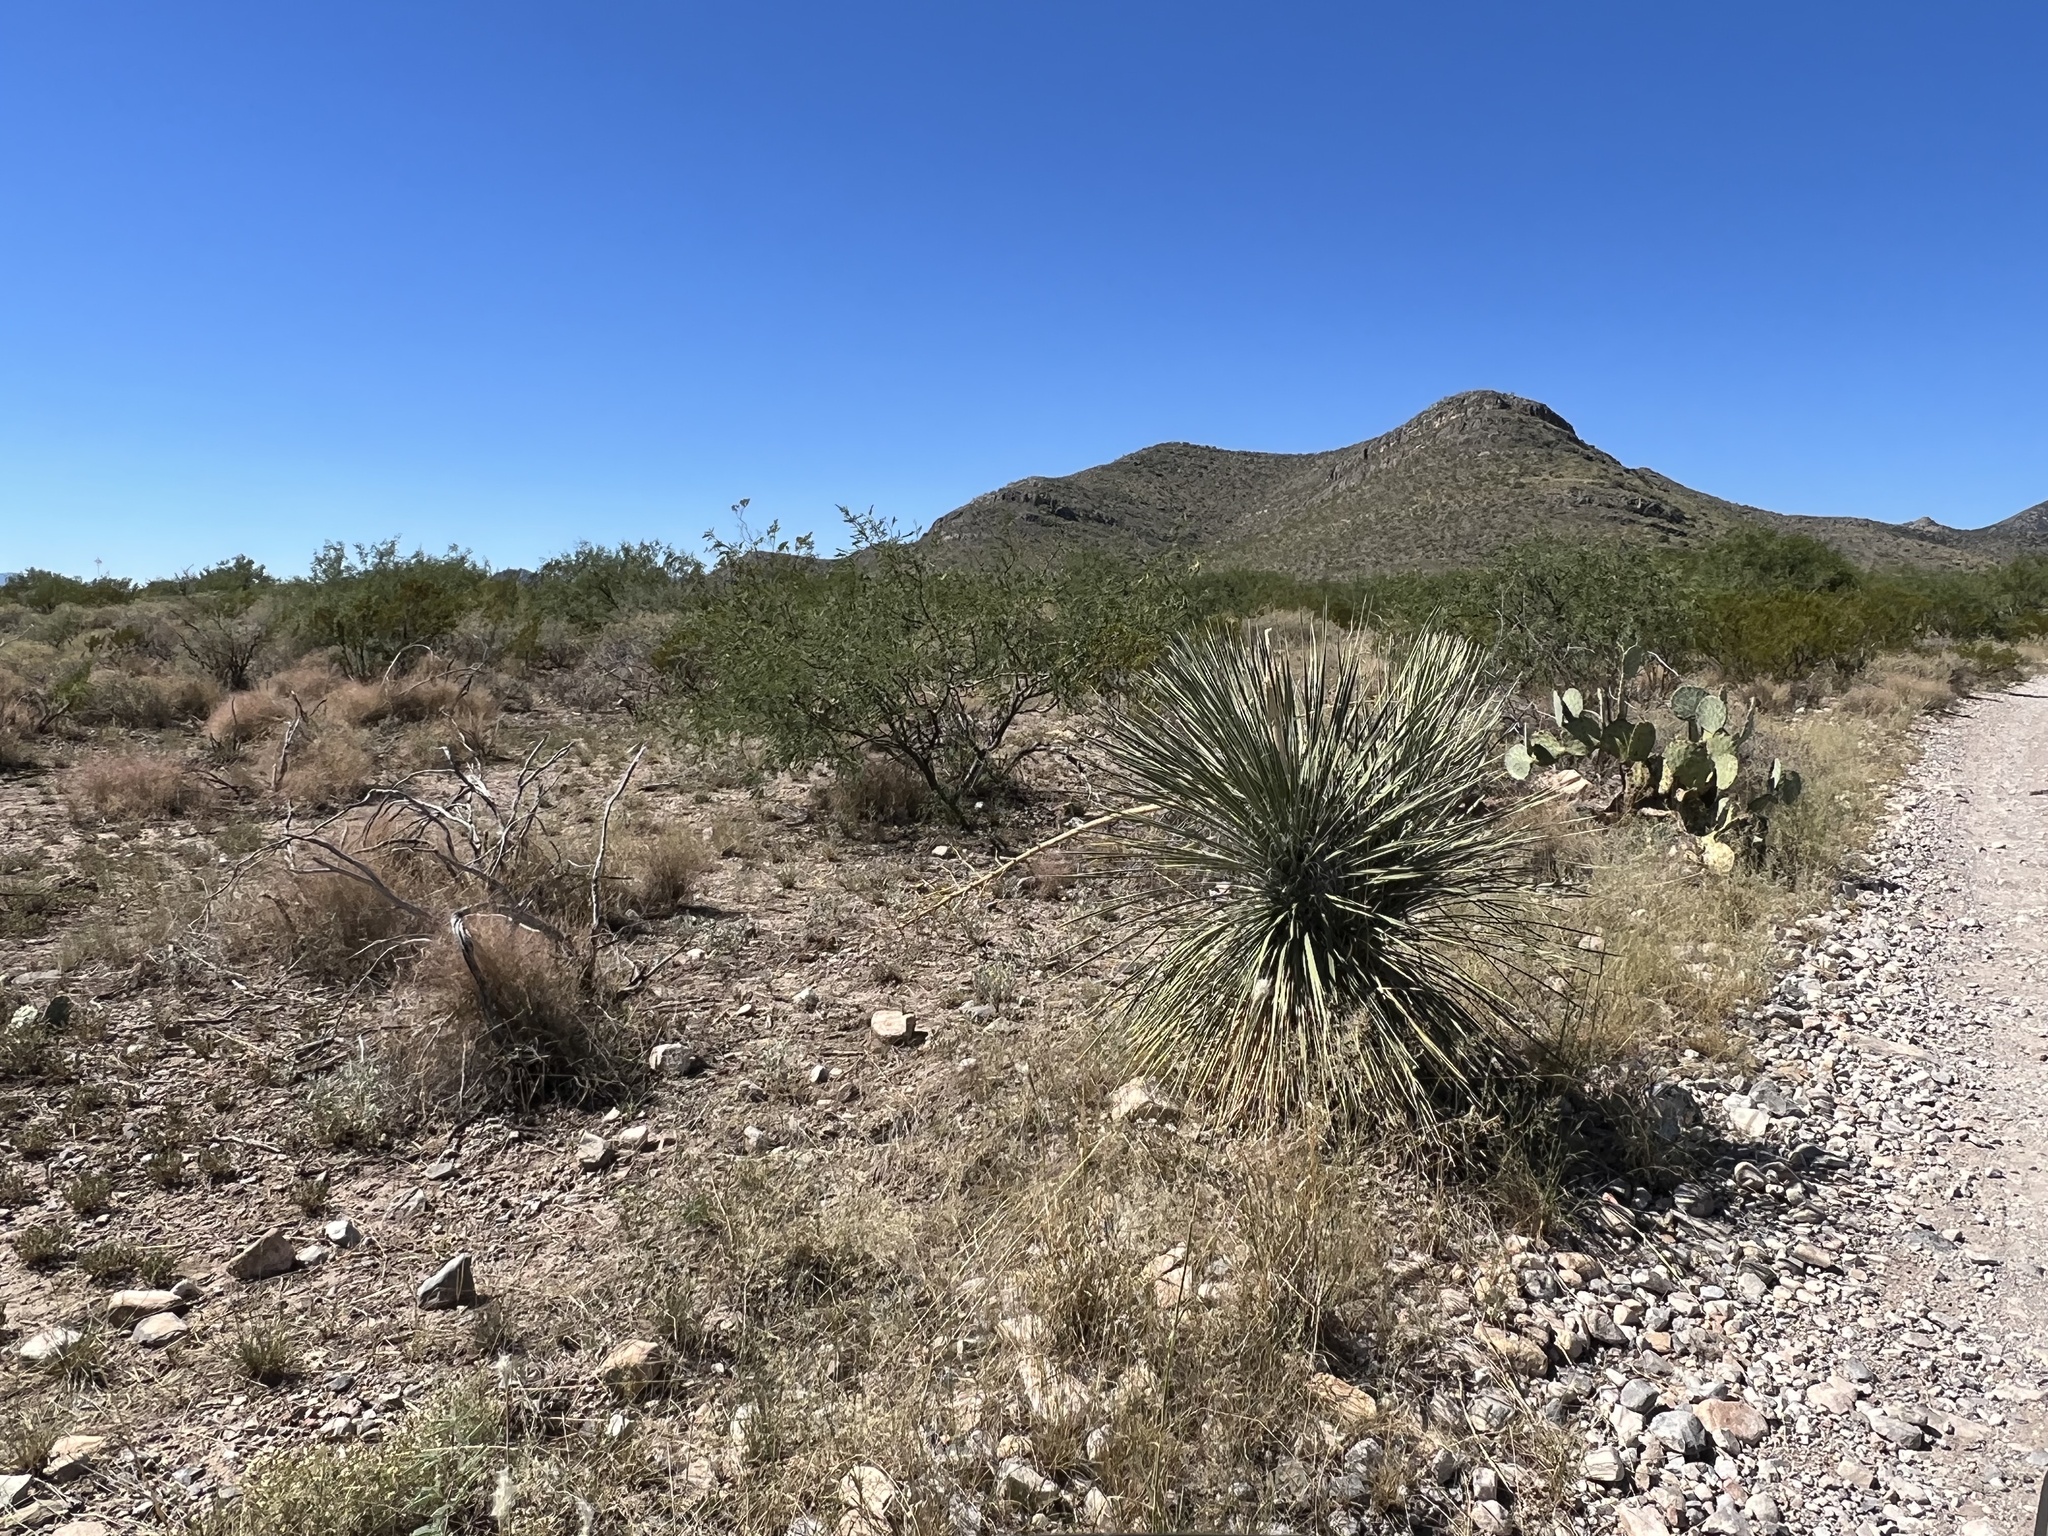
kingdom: Plantae
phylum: Tracheophyta
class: Liliopsida
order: Asparagales
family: Asparagaceae
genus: Yucca
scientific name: Yucca elata
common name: Palmella
